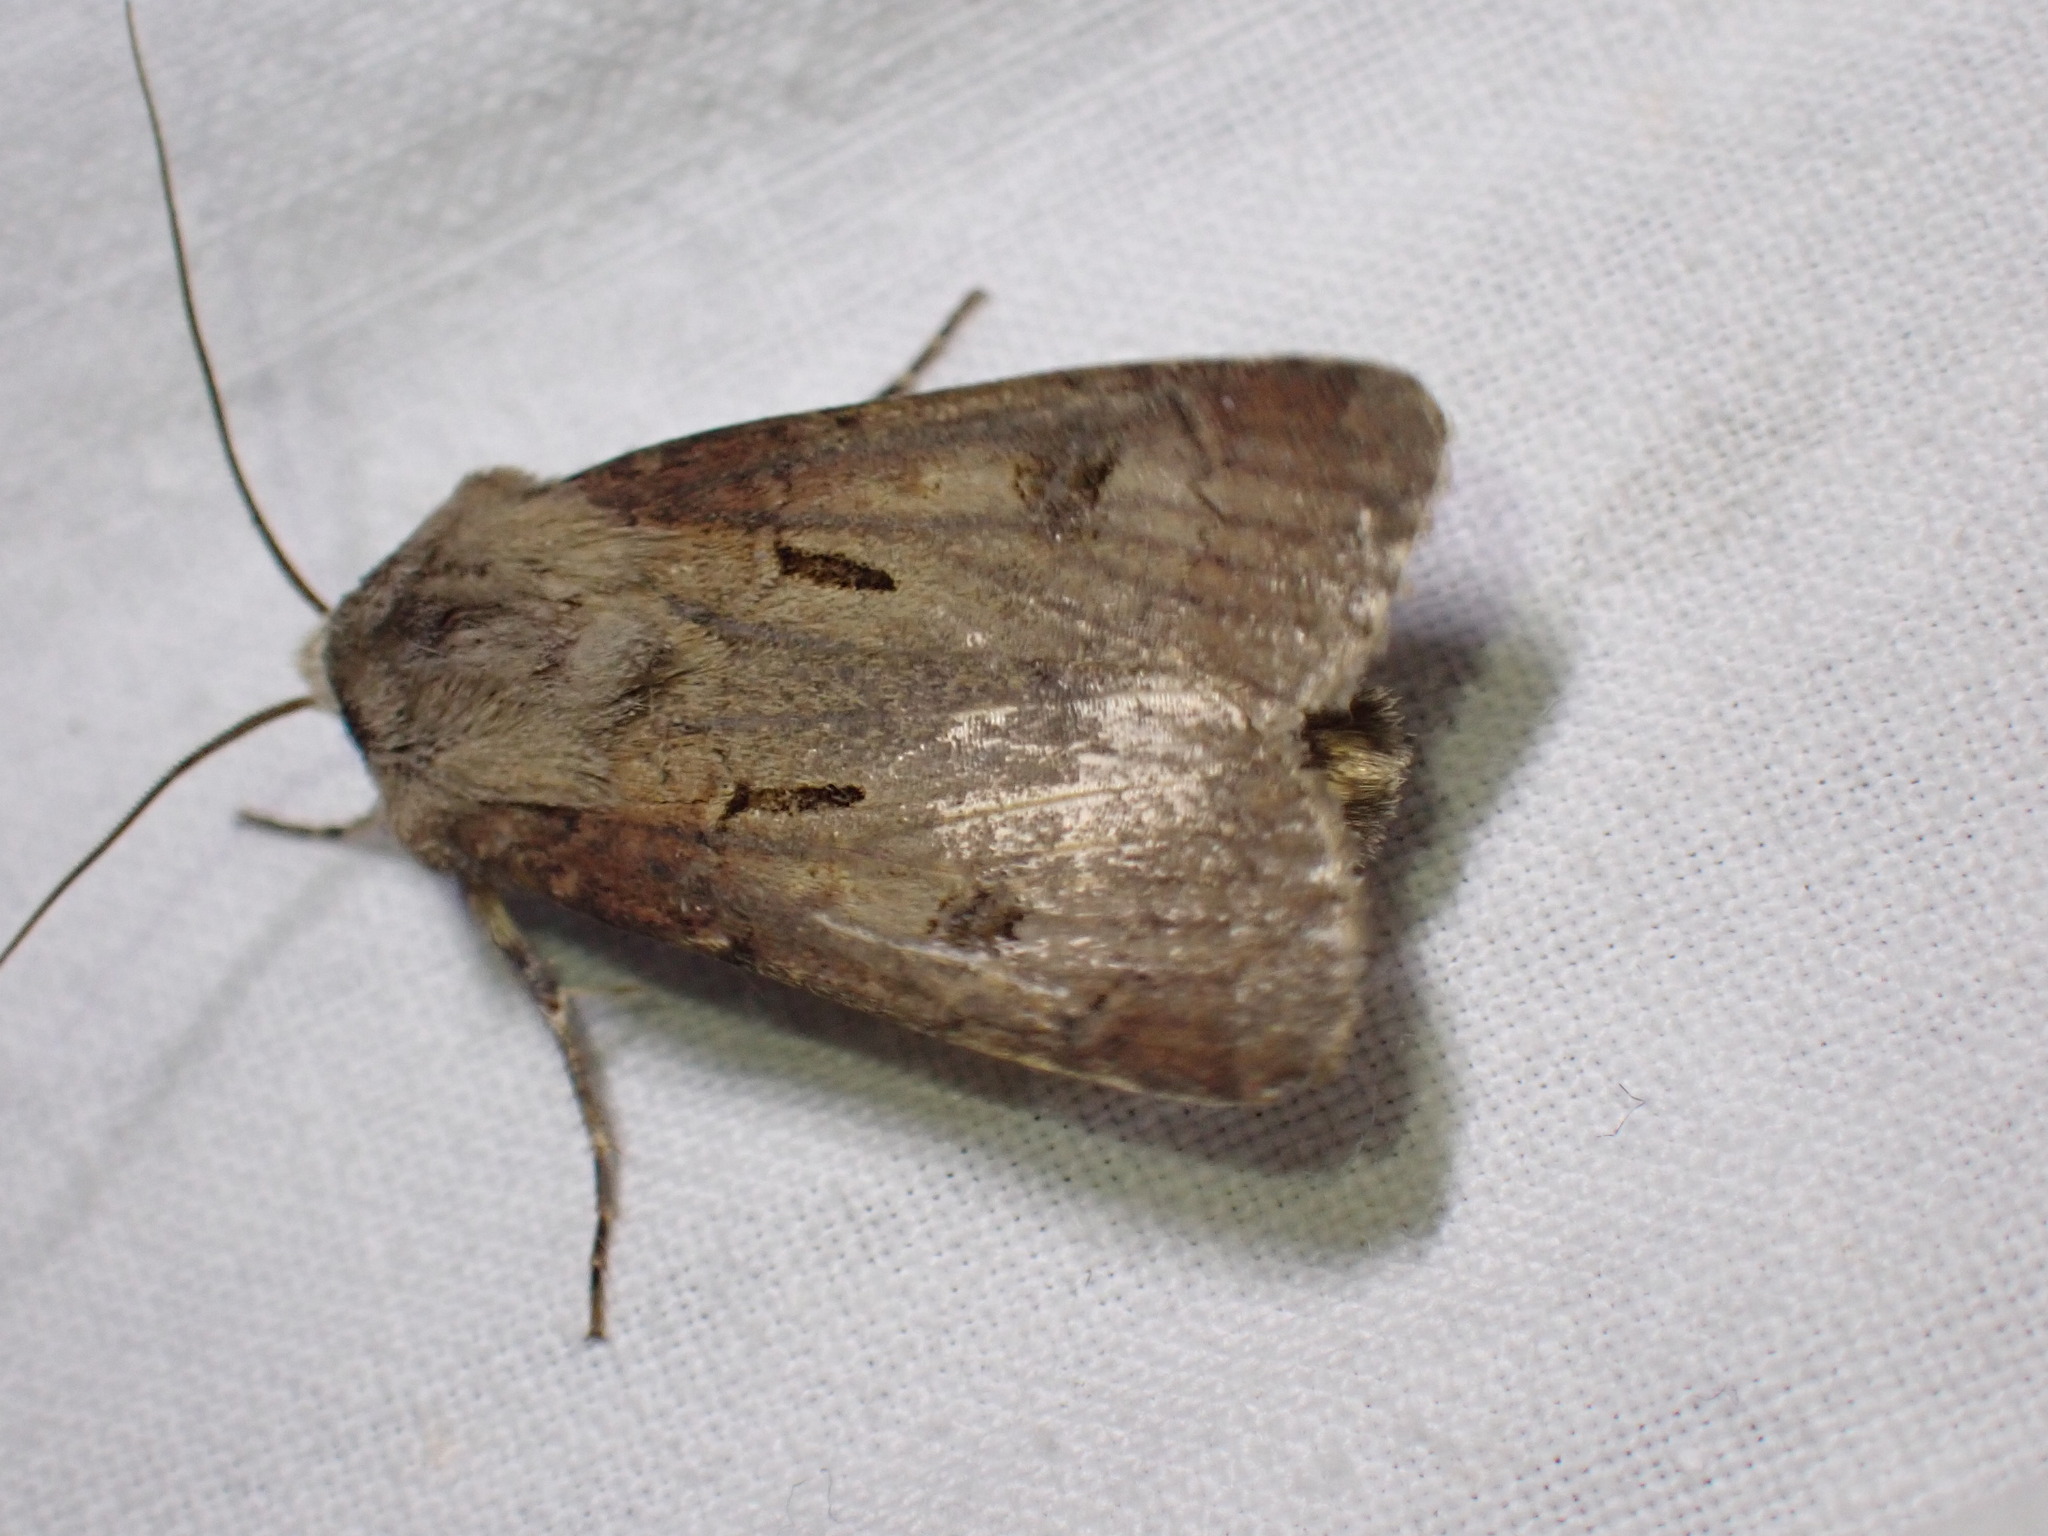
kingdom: Animalia
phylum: Arthropoda
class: Insecta
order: Lepidoptera
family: Noctuidae
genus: Agrotis
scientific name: Agrotis exclamationis
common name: Heart and dart
